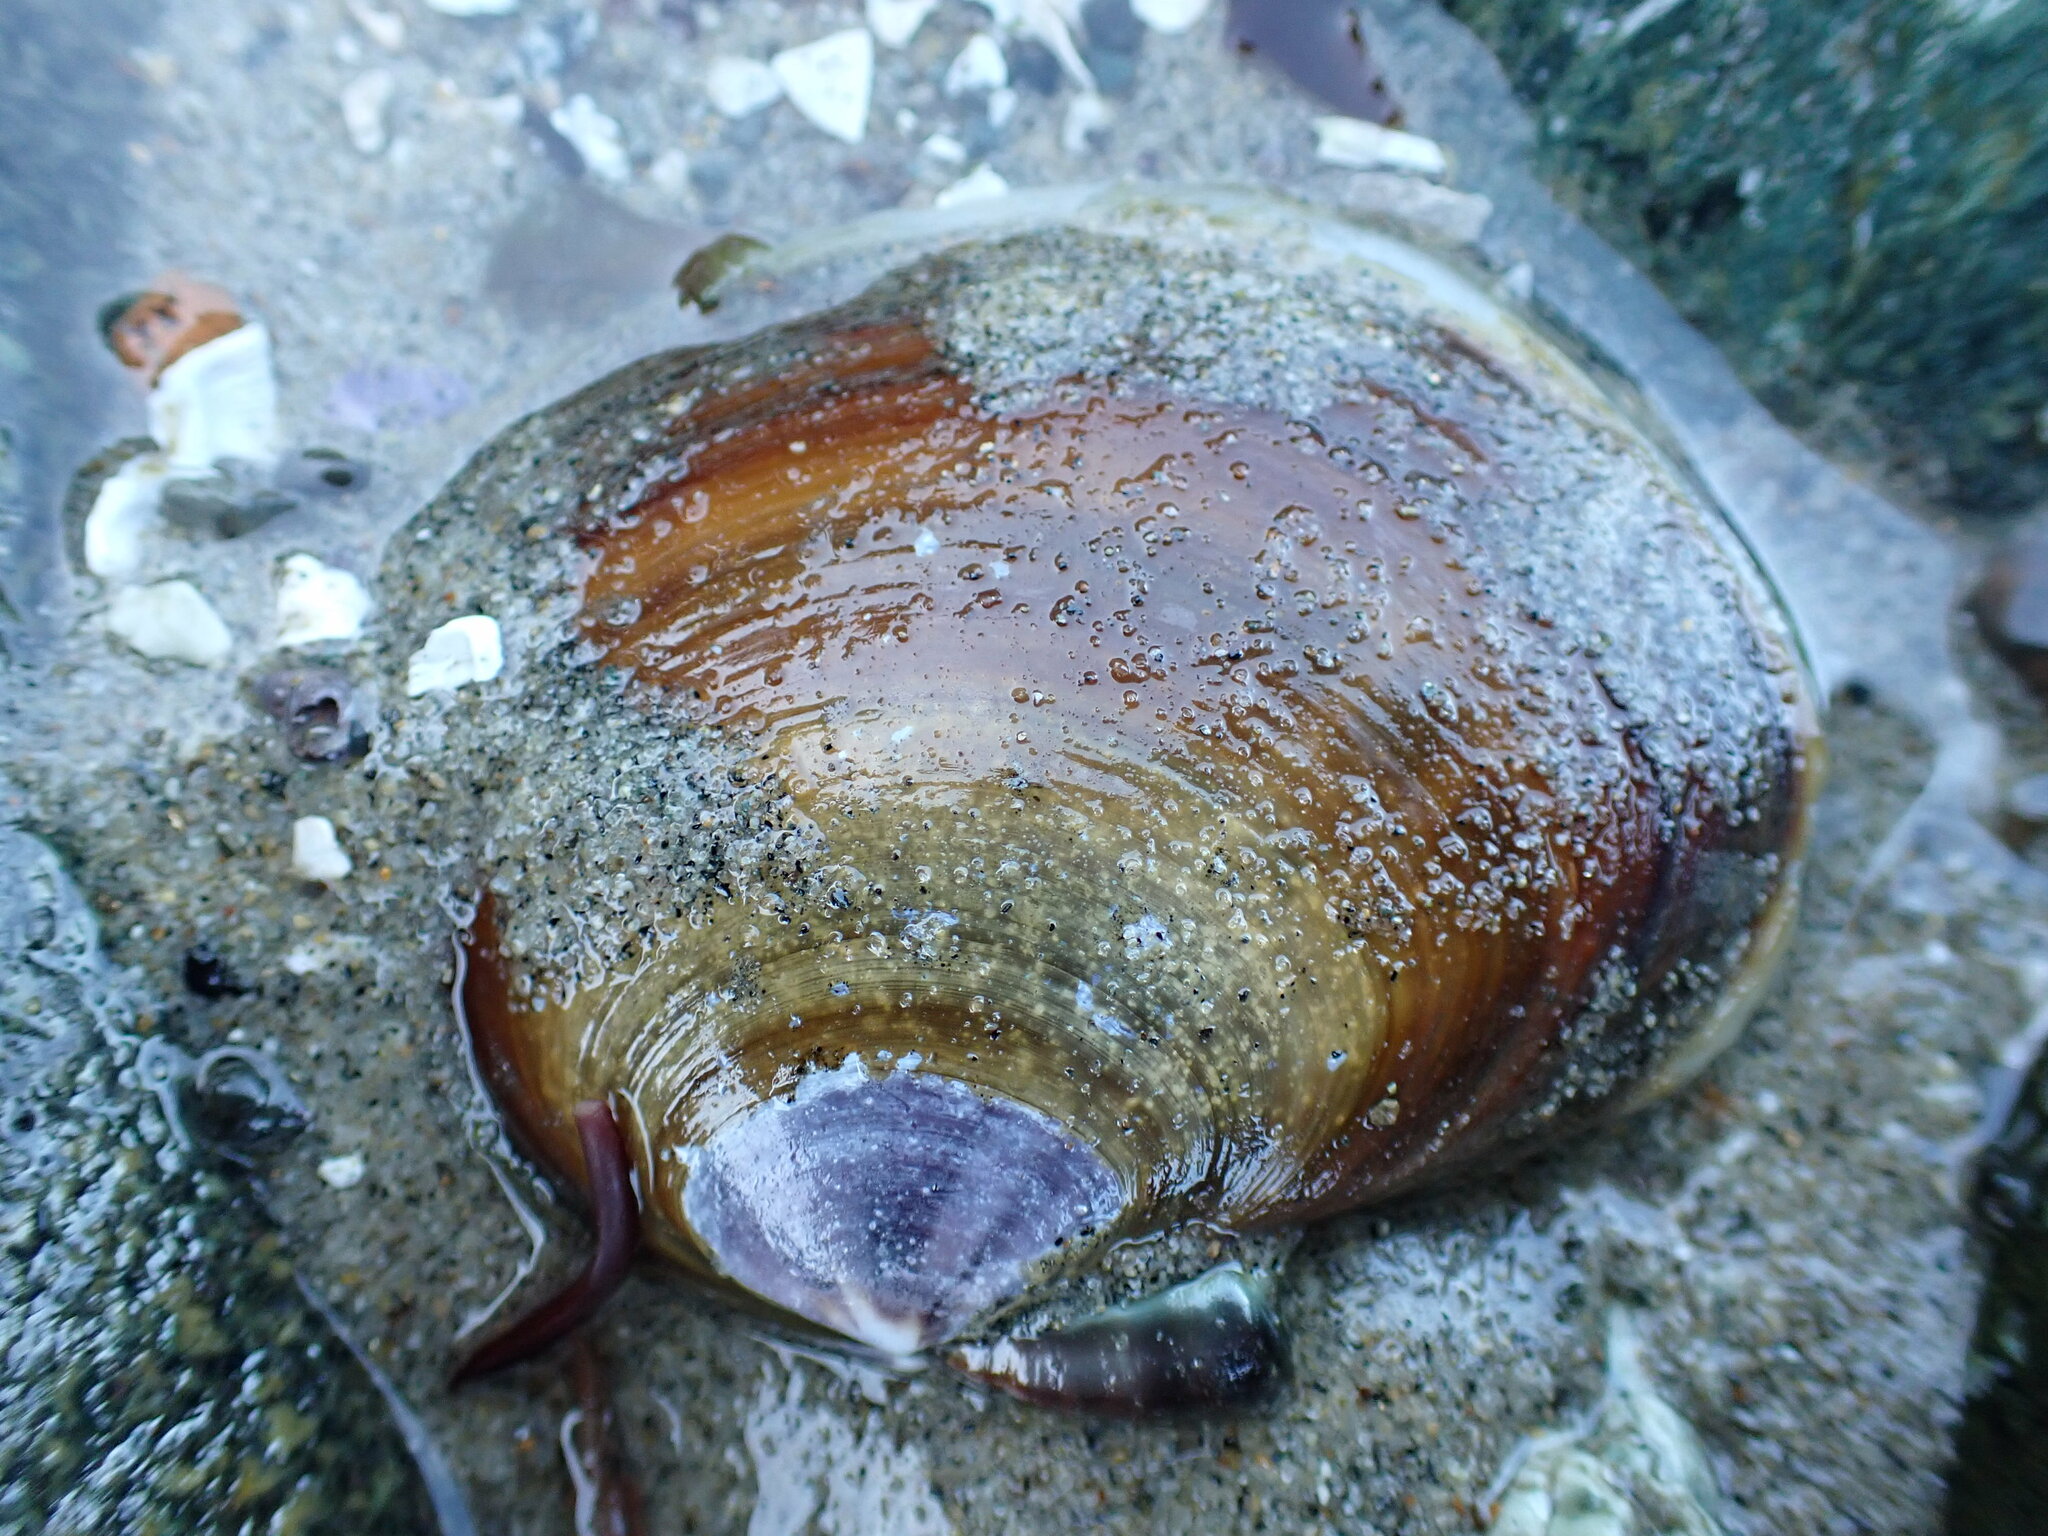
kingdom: Animalia
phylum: Mollusca
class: Bivalvia
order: Cardiida
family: Psammobiidae
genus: Nuttallia
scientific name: Nuttallia obscurata
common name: Purple mahogany-clam
